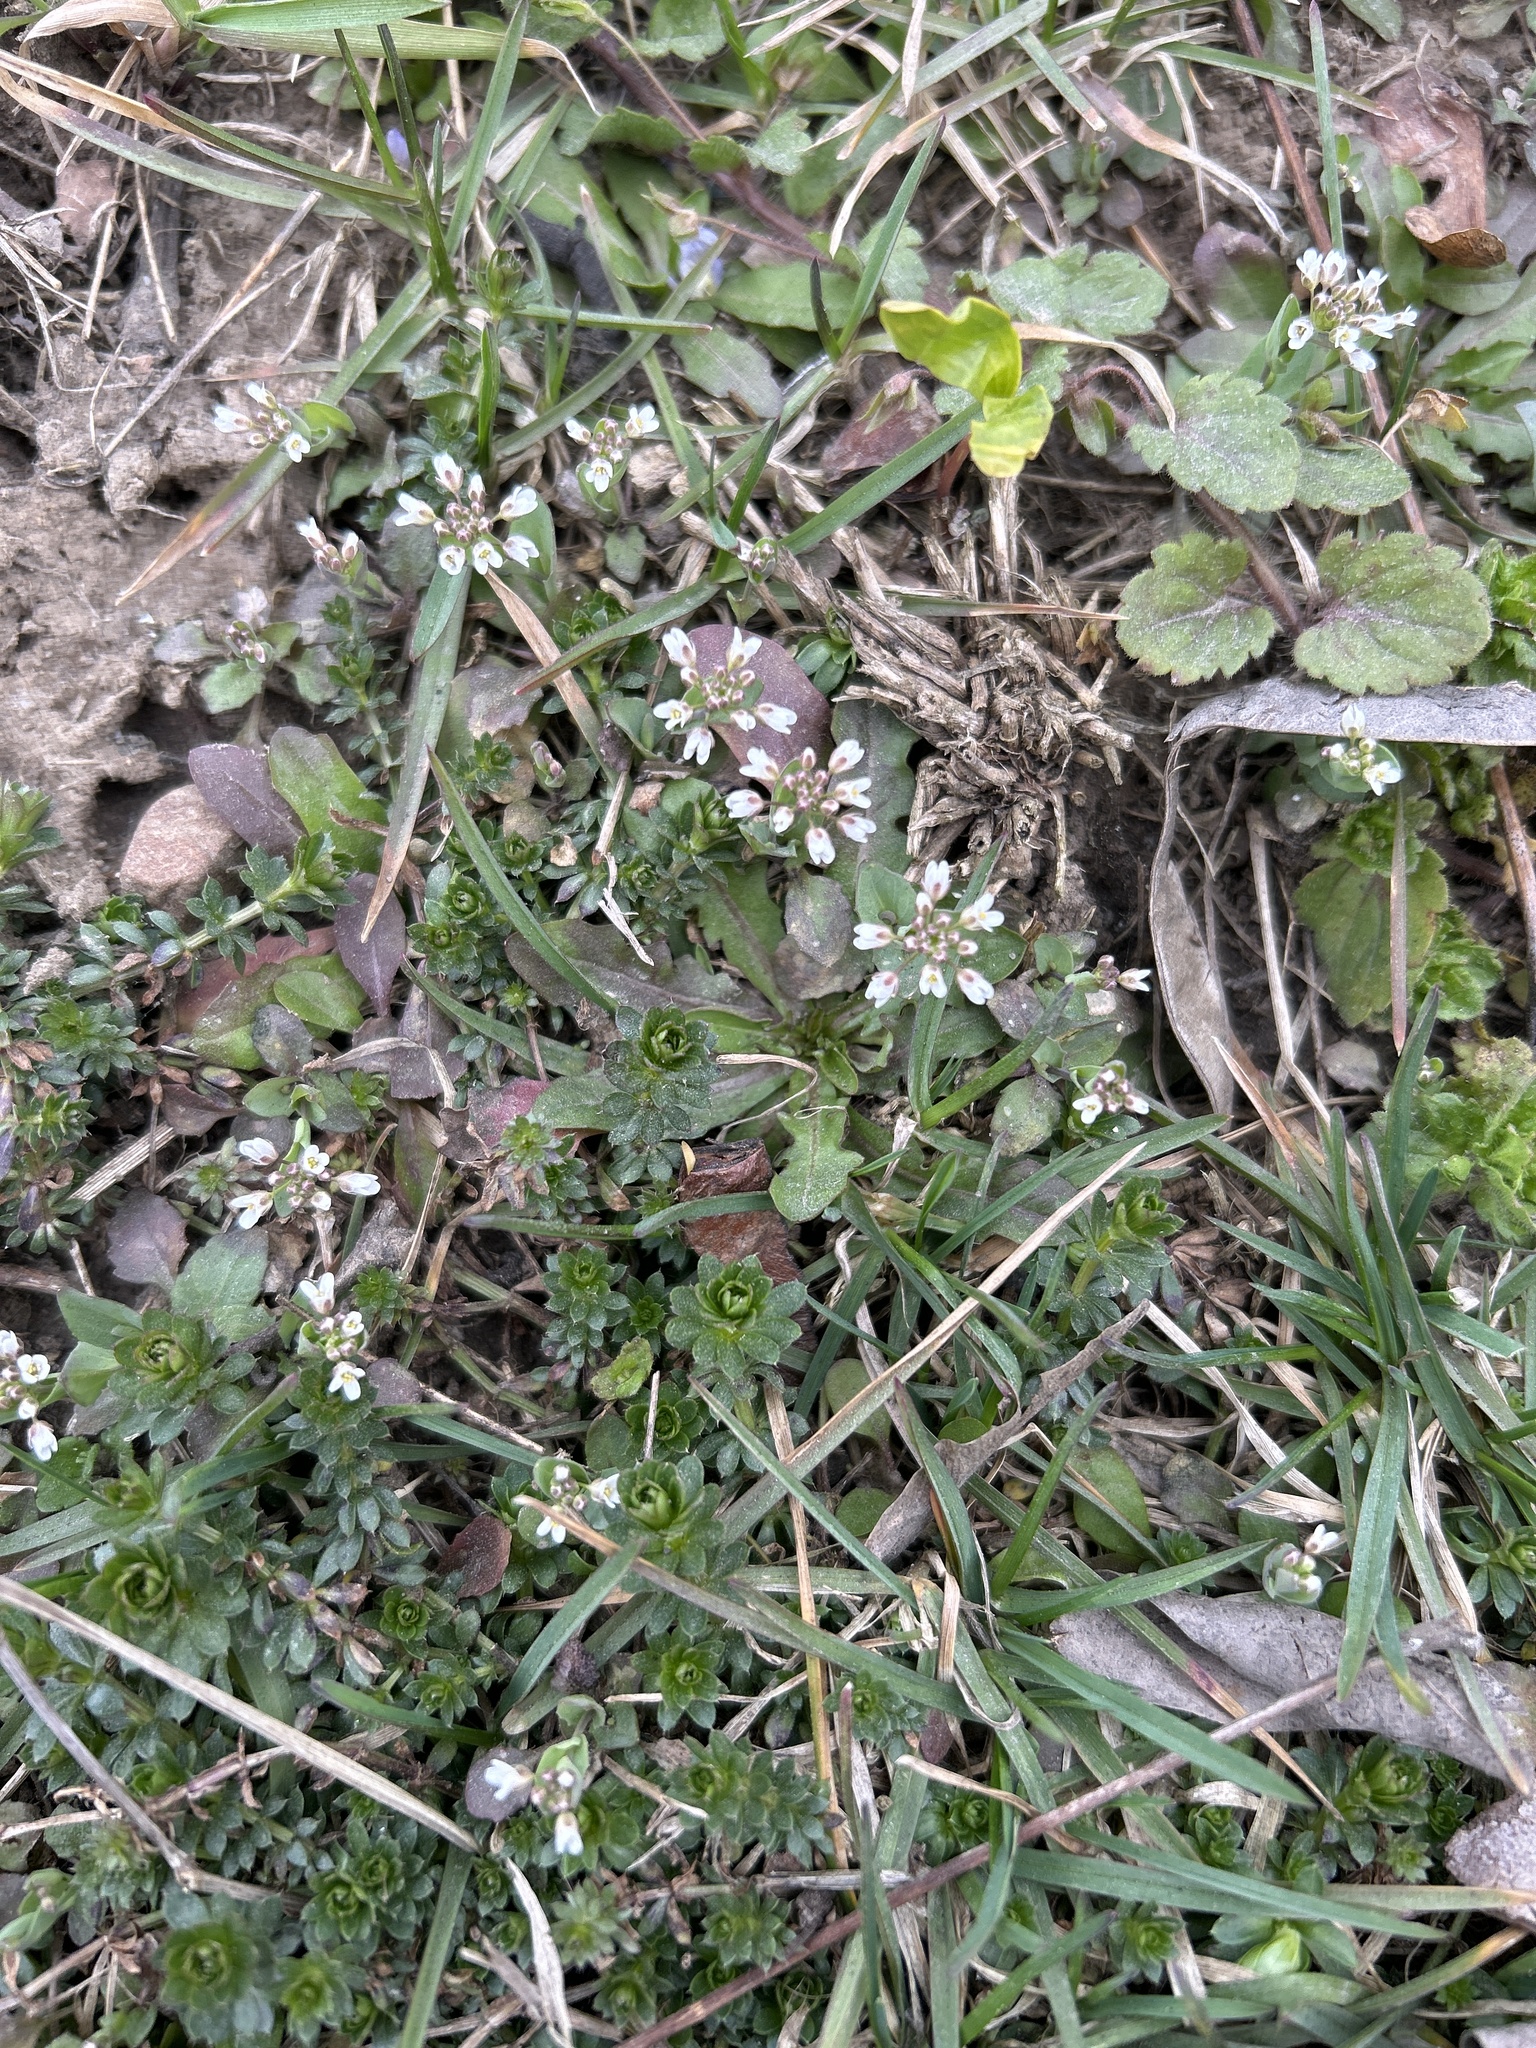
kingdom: Plantae
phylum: Tracheophyta
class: Magnoliopsida
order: Brassicales
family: Brassicaceae
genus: Noccaea
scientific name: Noccaea perfoliata
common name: Perfoliate pennycress
